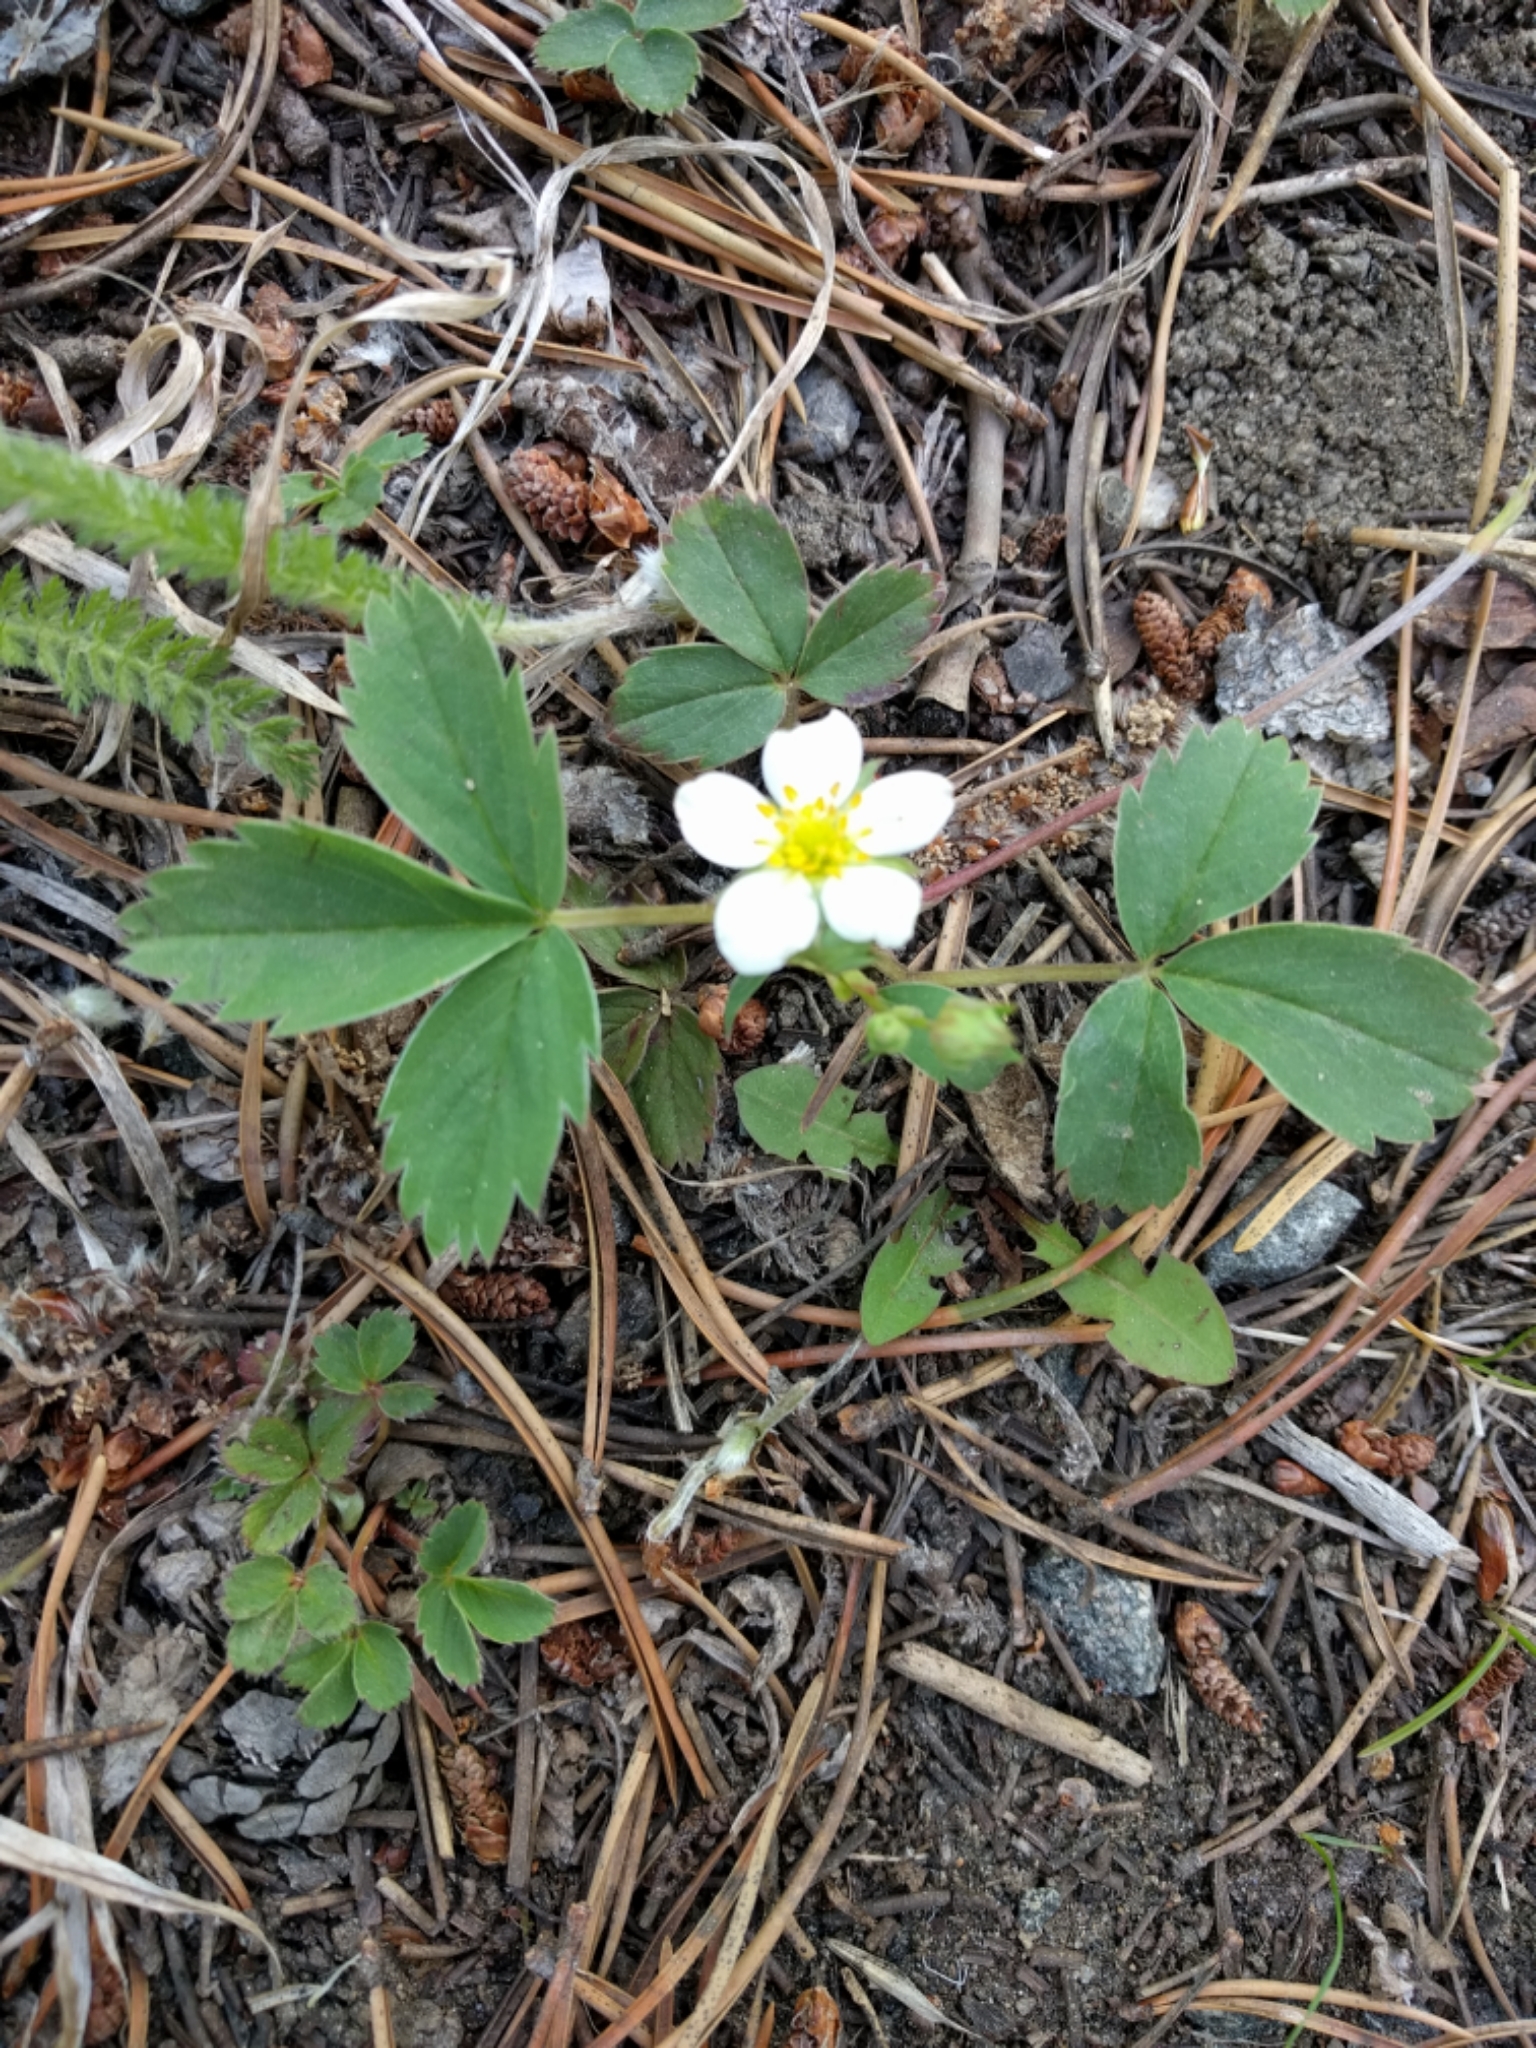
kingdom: Plantae
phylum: Tracheophyta
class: Magnoliopsida
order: Rosales
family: Rosaceae
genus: Fragaria
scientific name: Fragaria virginiana
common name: Thickleaved wild strawberry
